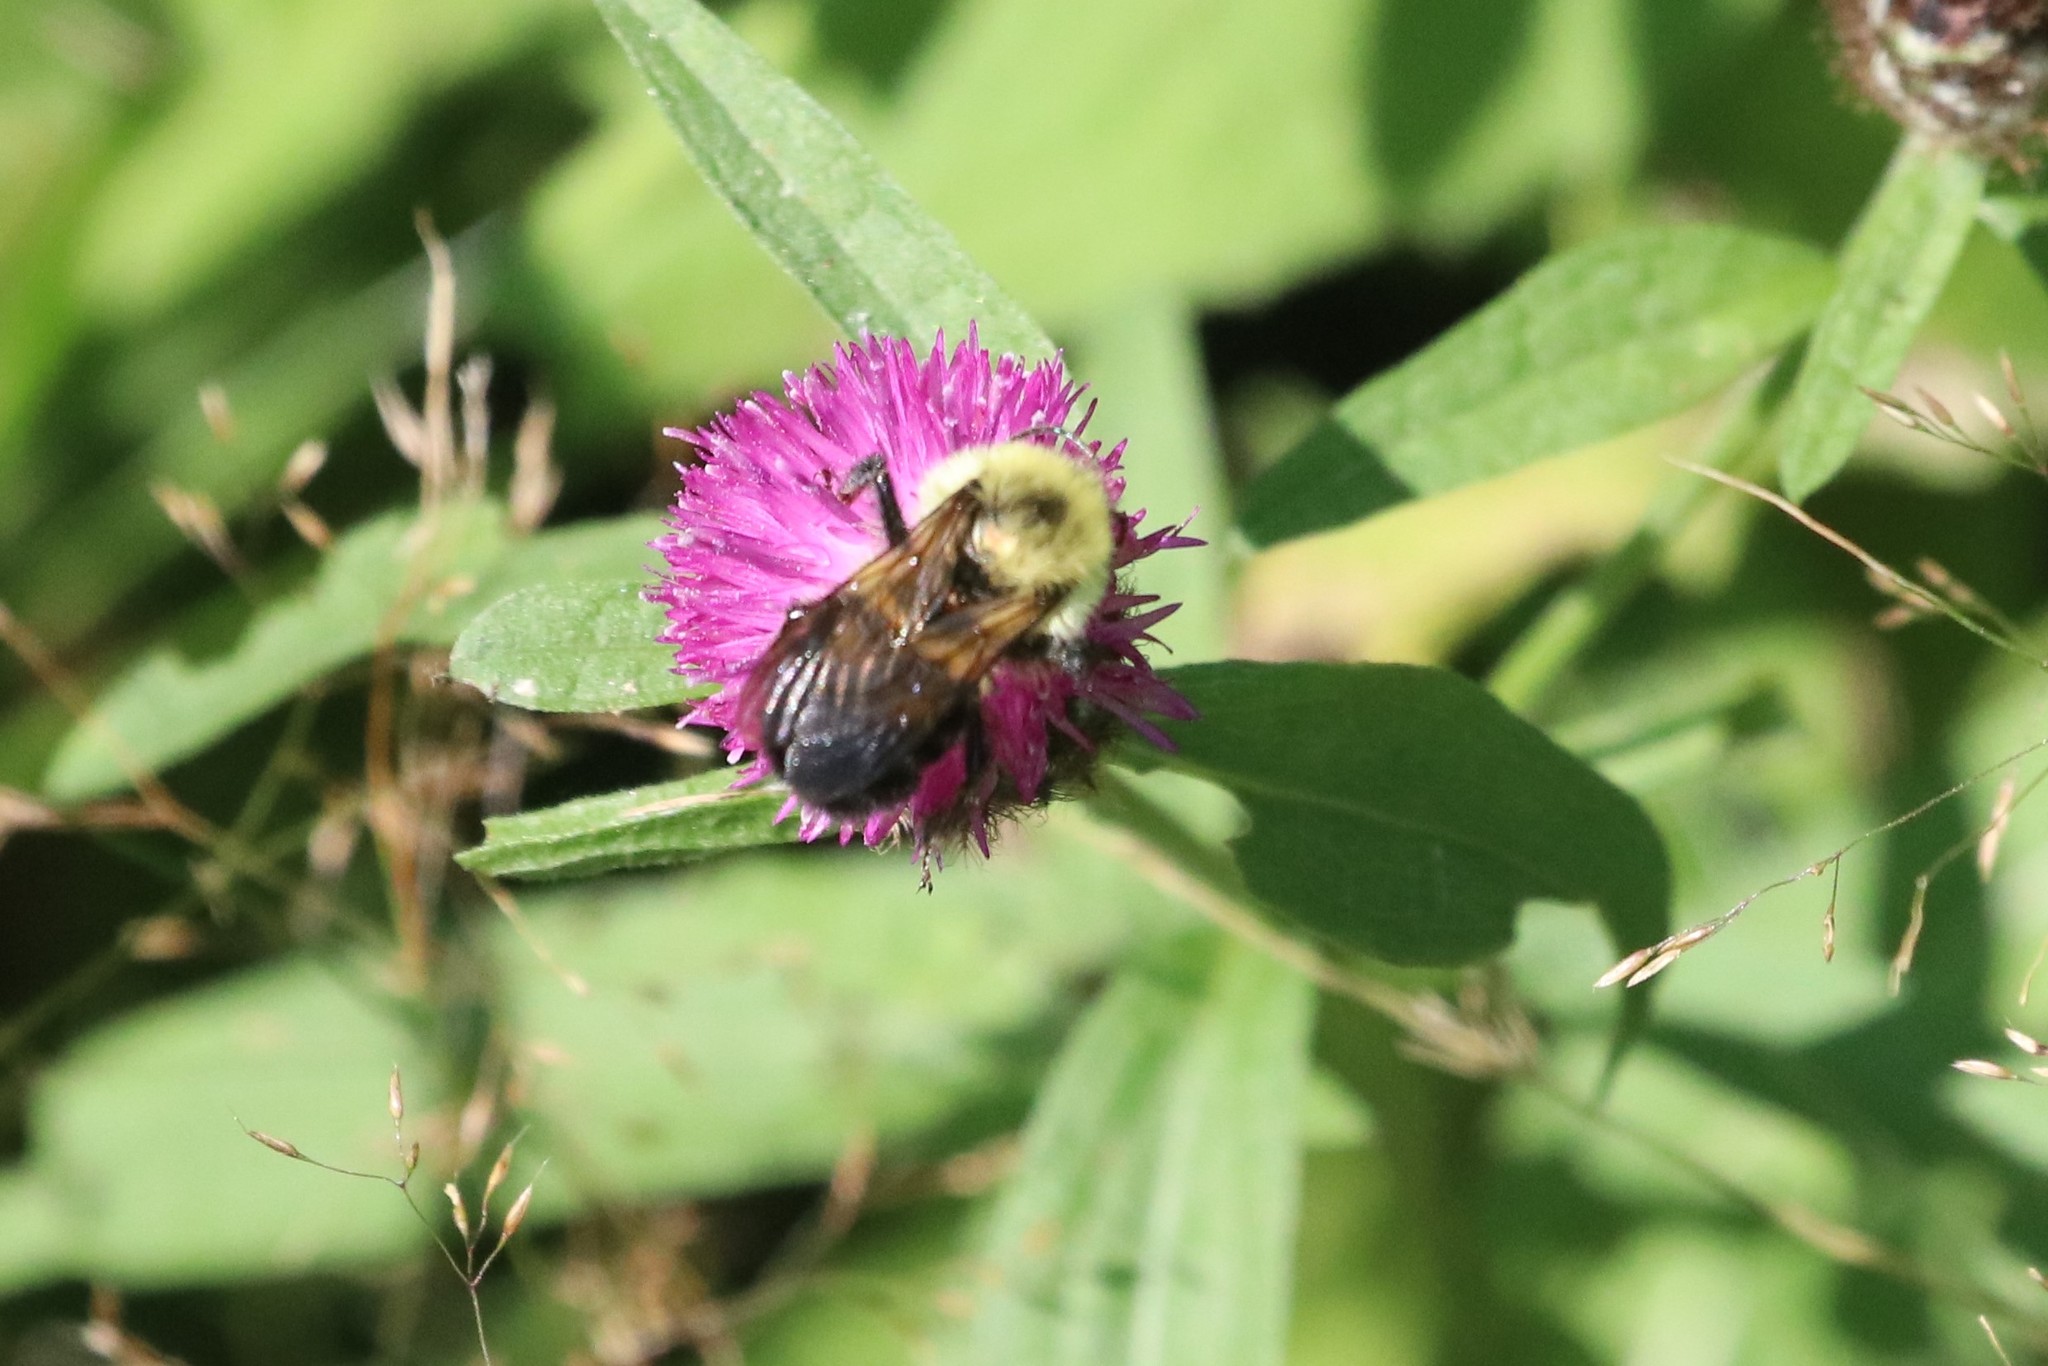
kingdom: Animalia
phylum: Arthropoda
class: Insecta
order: Hymenoptera
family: Apidae
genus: Bombus
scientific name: Bombus bimaculatus
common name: Two-spotted bumble bee
